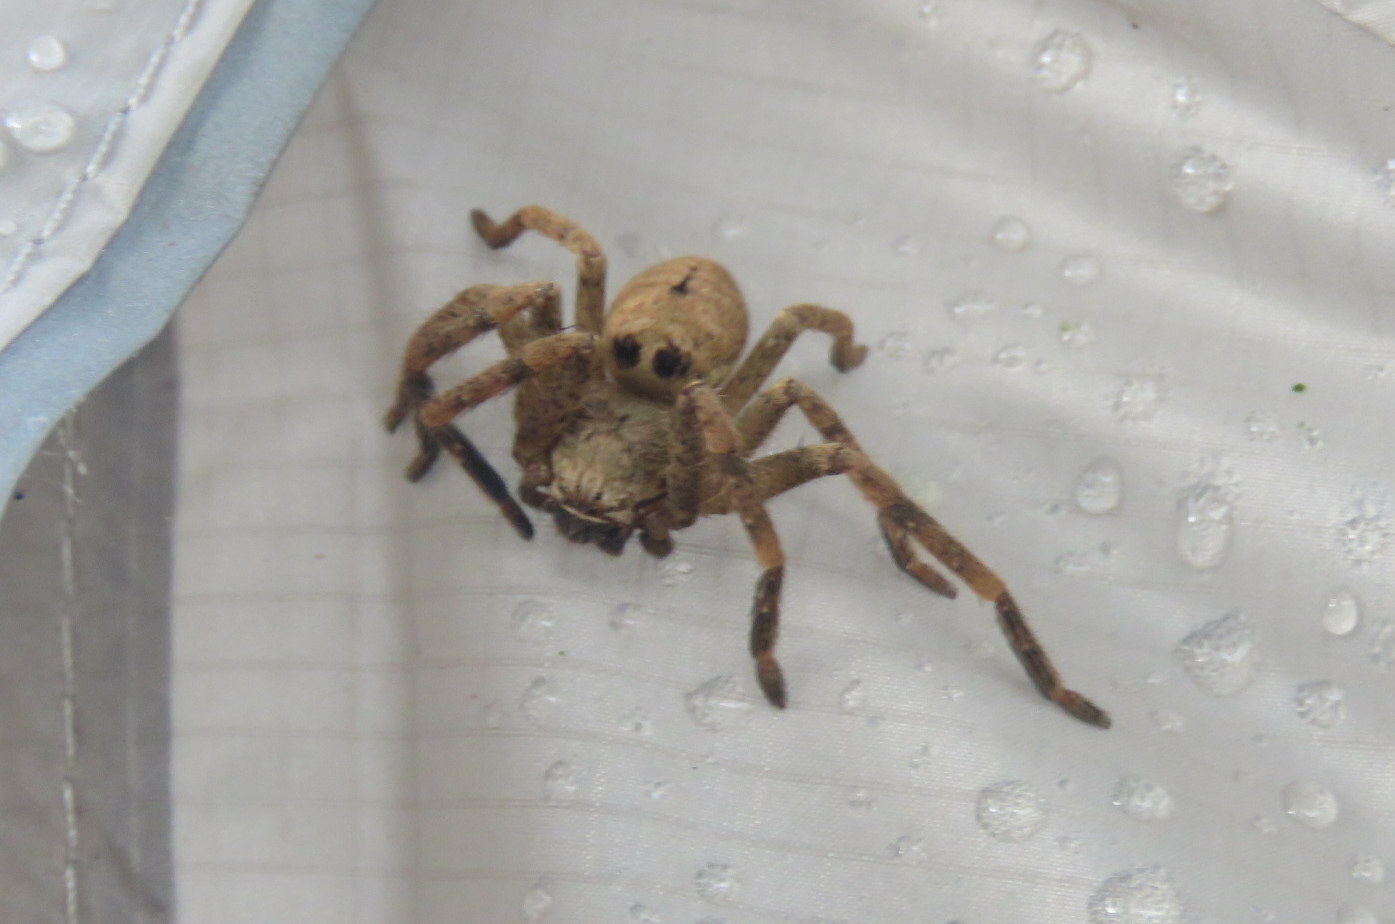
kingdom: Animalia
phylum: Arthropoda
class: Arachnida
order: Araneae
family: Sparassidae
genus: Polybetes
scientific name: Polybetes rapidus
